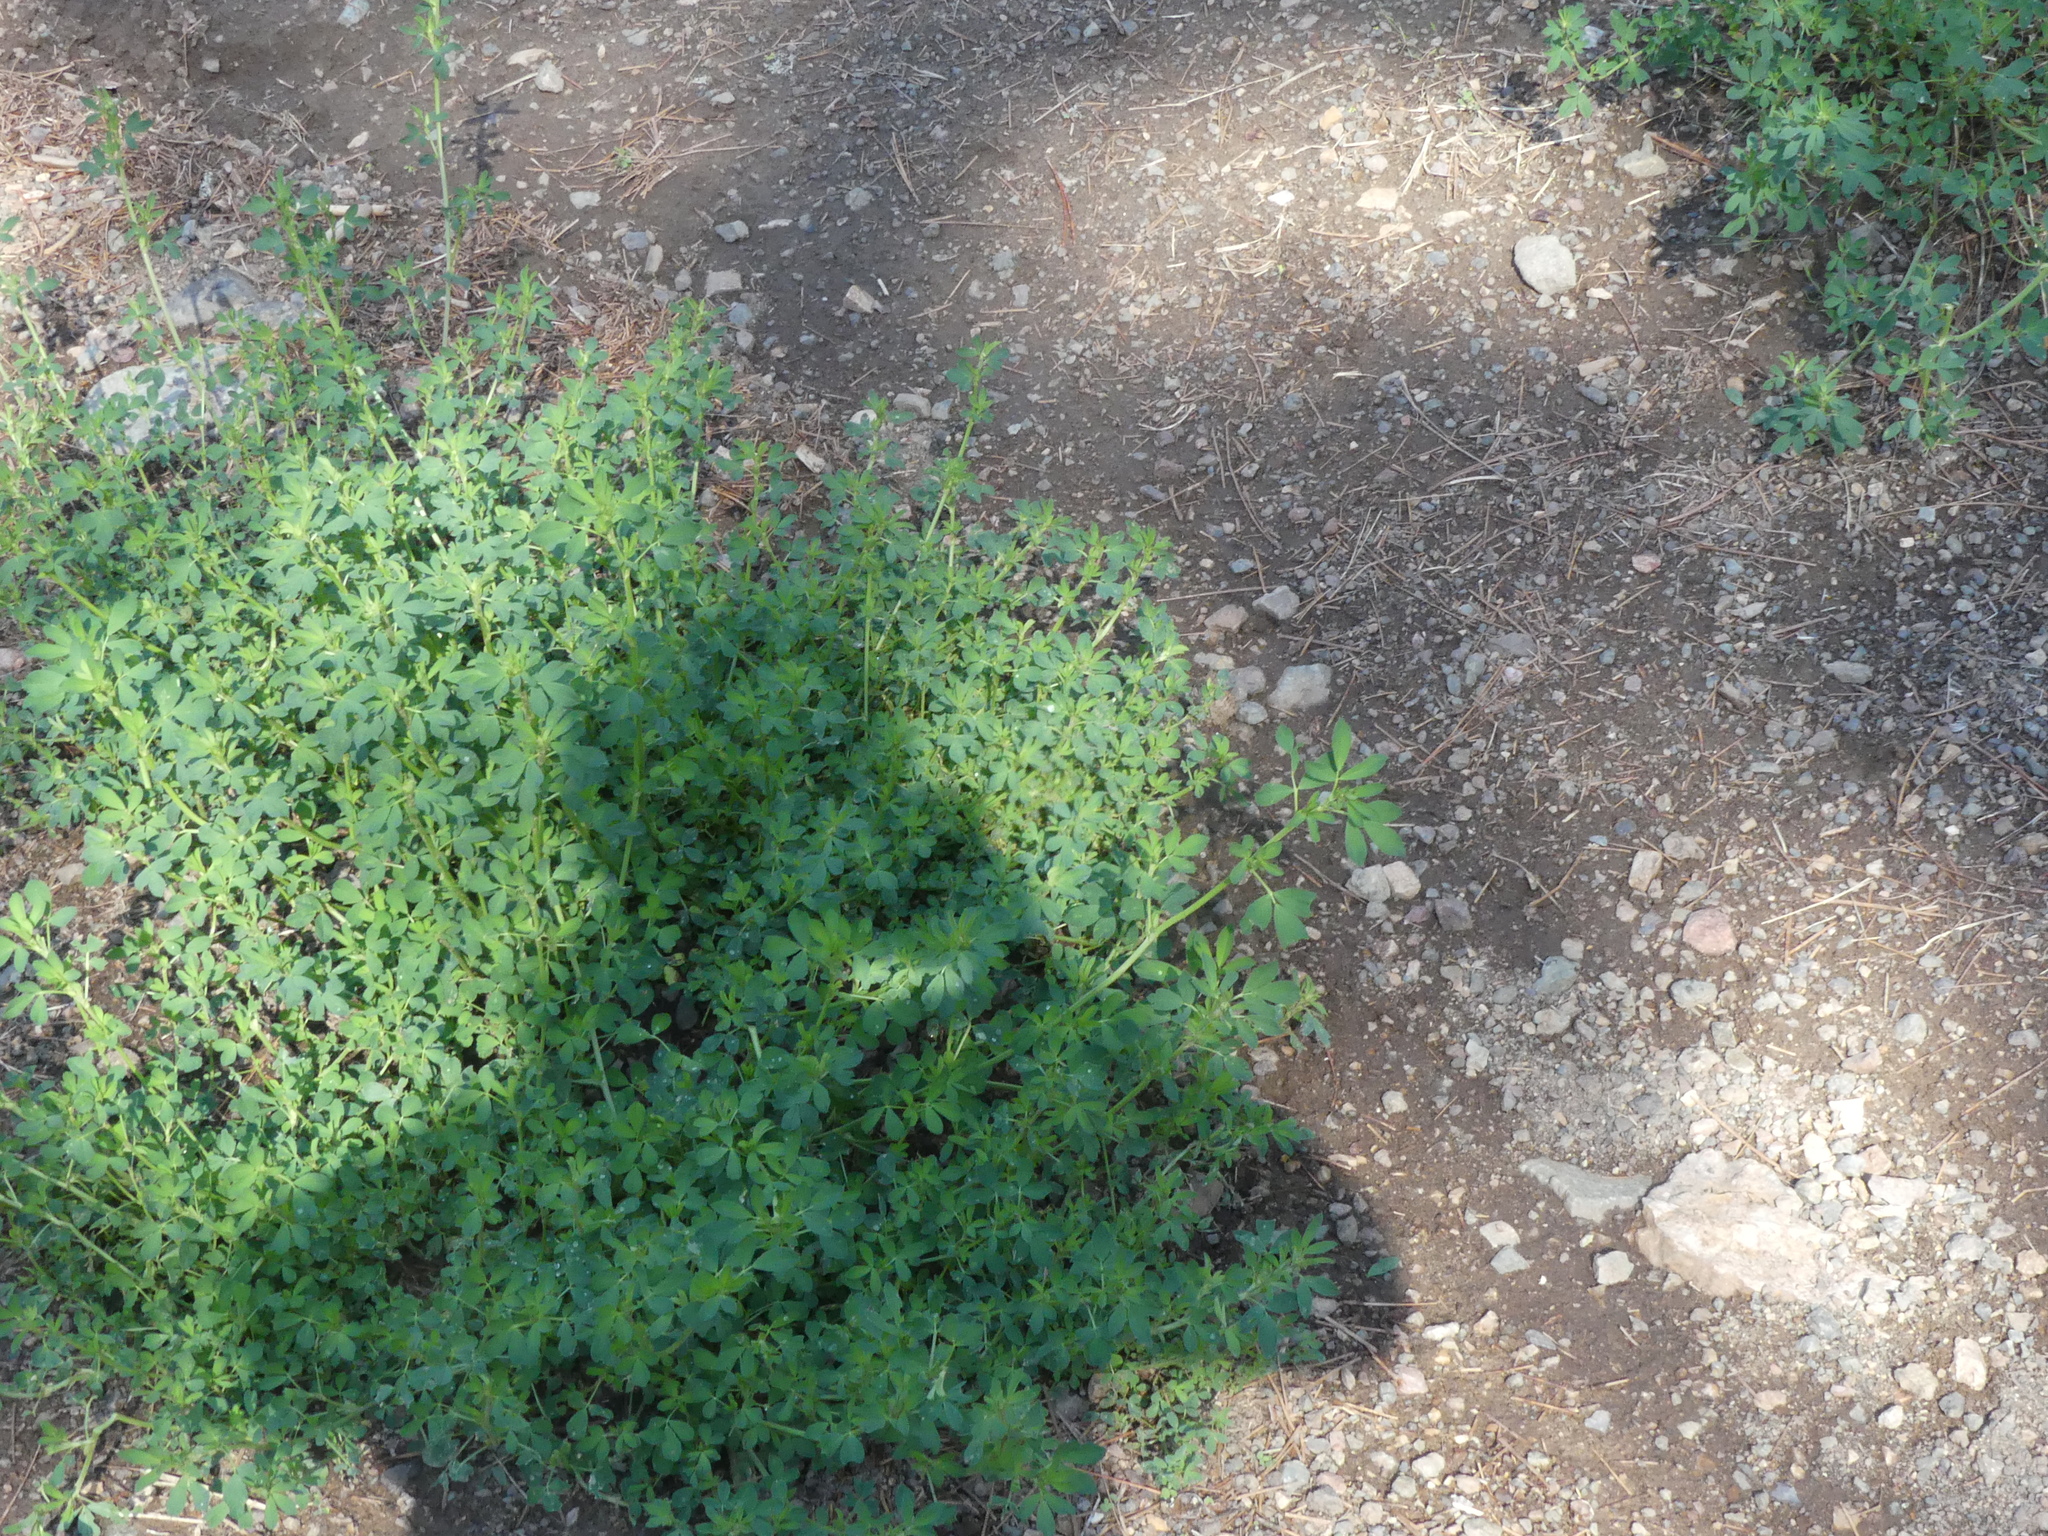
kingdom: Plantae
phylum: Tracheophyta
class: Magnoliopsida
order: Fabales
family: Fabaceae
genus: Medicago
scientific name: Medicago sativa
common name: Alfalfa
